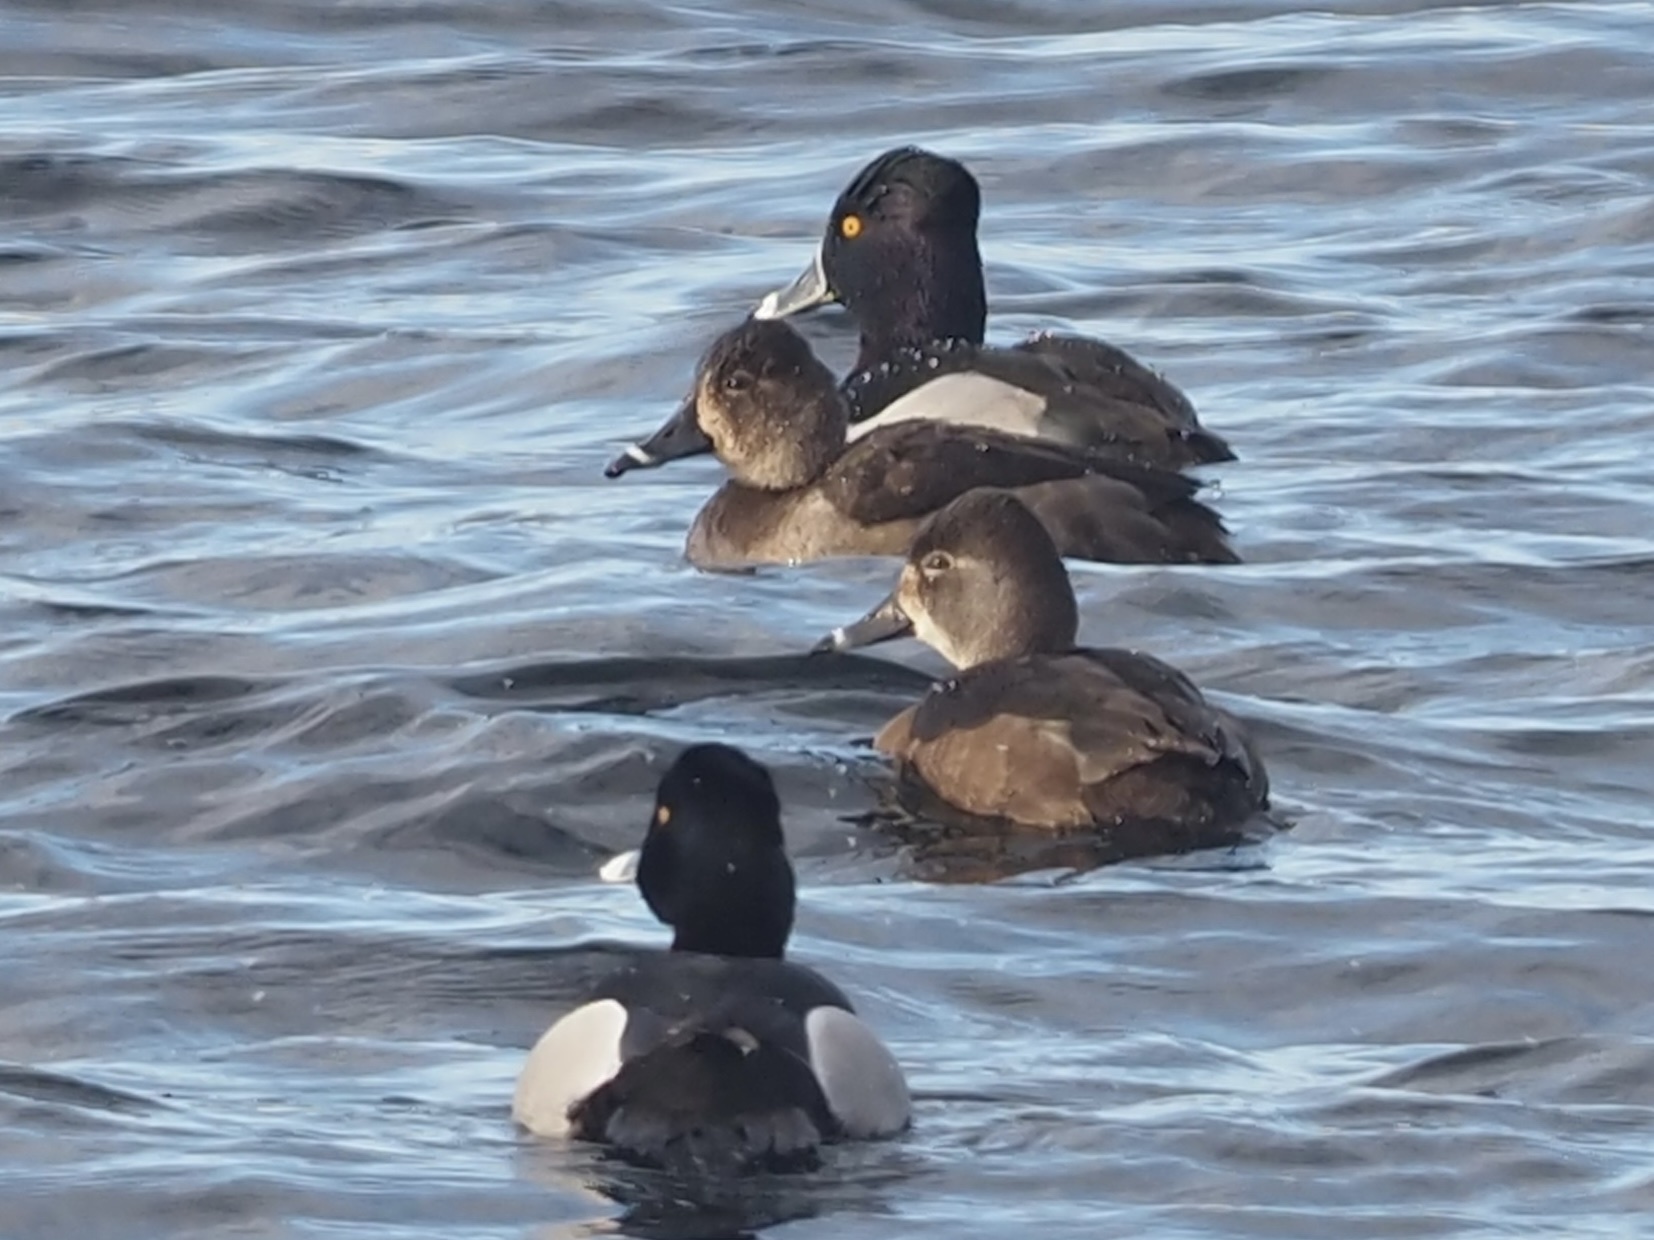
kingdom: Animalia
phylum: Chordata
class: Aves
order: Anseriformes
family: Anatidae
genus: Aythya
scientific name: Aythya collaris
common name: Ring-necked duck
